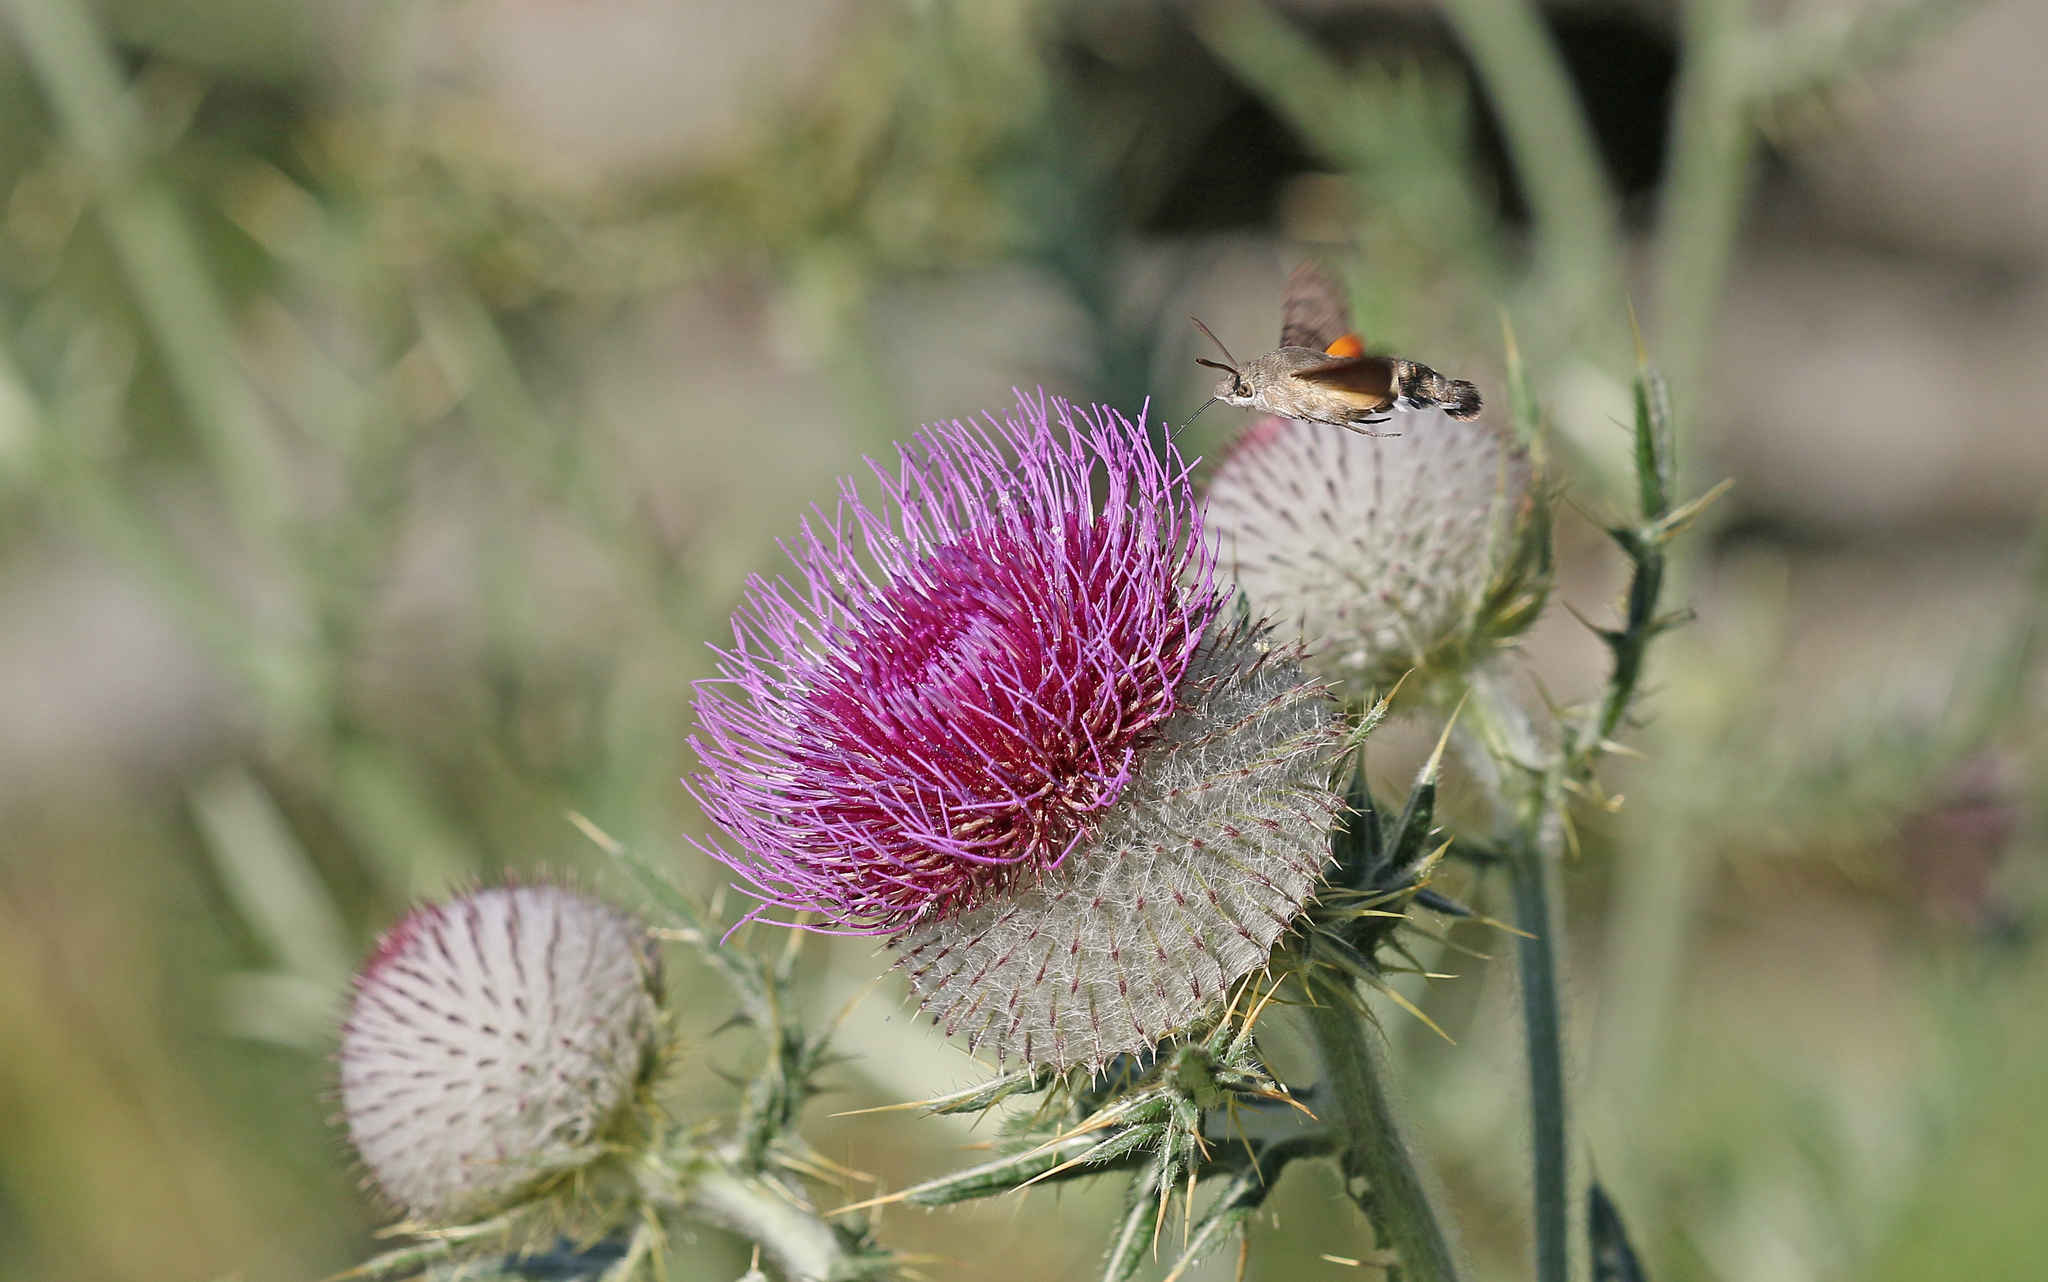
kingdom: Animalia
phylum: Arthropoda
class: Insecta
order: Lepidoptera
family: Sphingidae
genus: Macroglossum
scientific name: Macroglossum stellatarum
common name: Humming-bird hawk-moth
